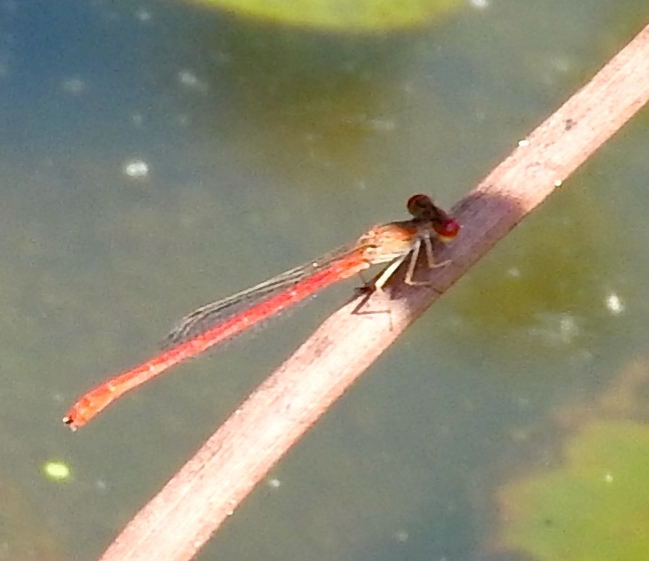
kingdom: Animalia
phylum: Arthropoda
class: Insecta
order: Odonata
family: Coenagrionidae
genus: Telebasis
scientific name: Telebasis salva
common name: Desert firetail
